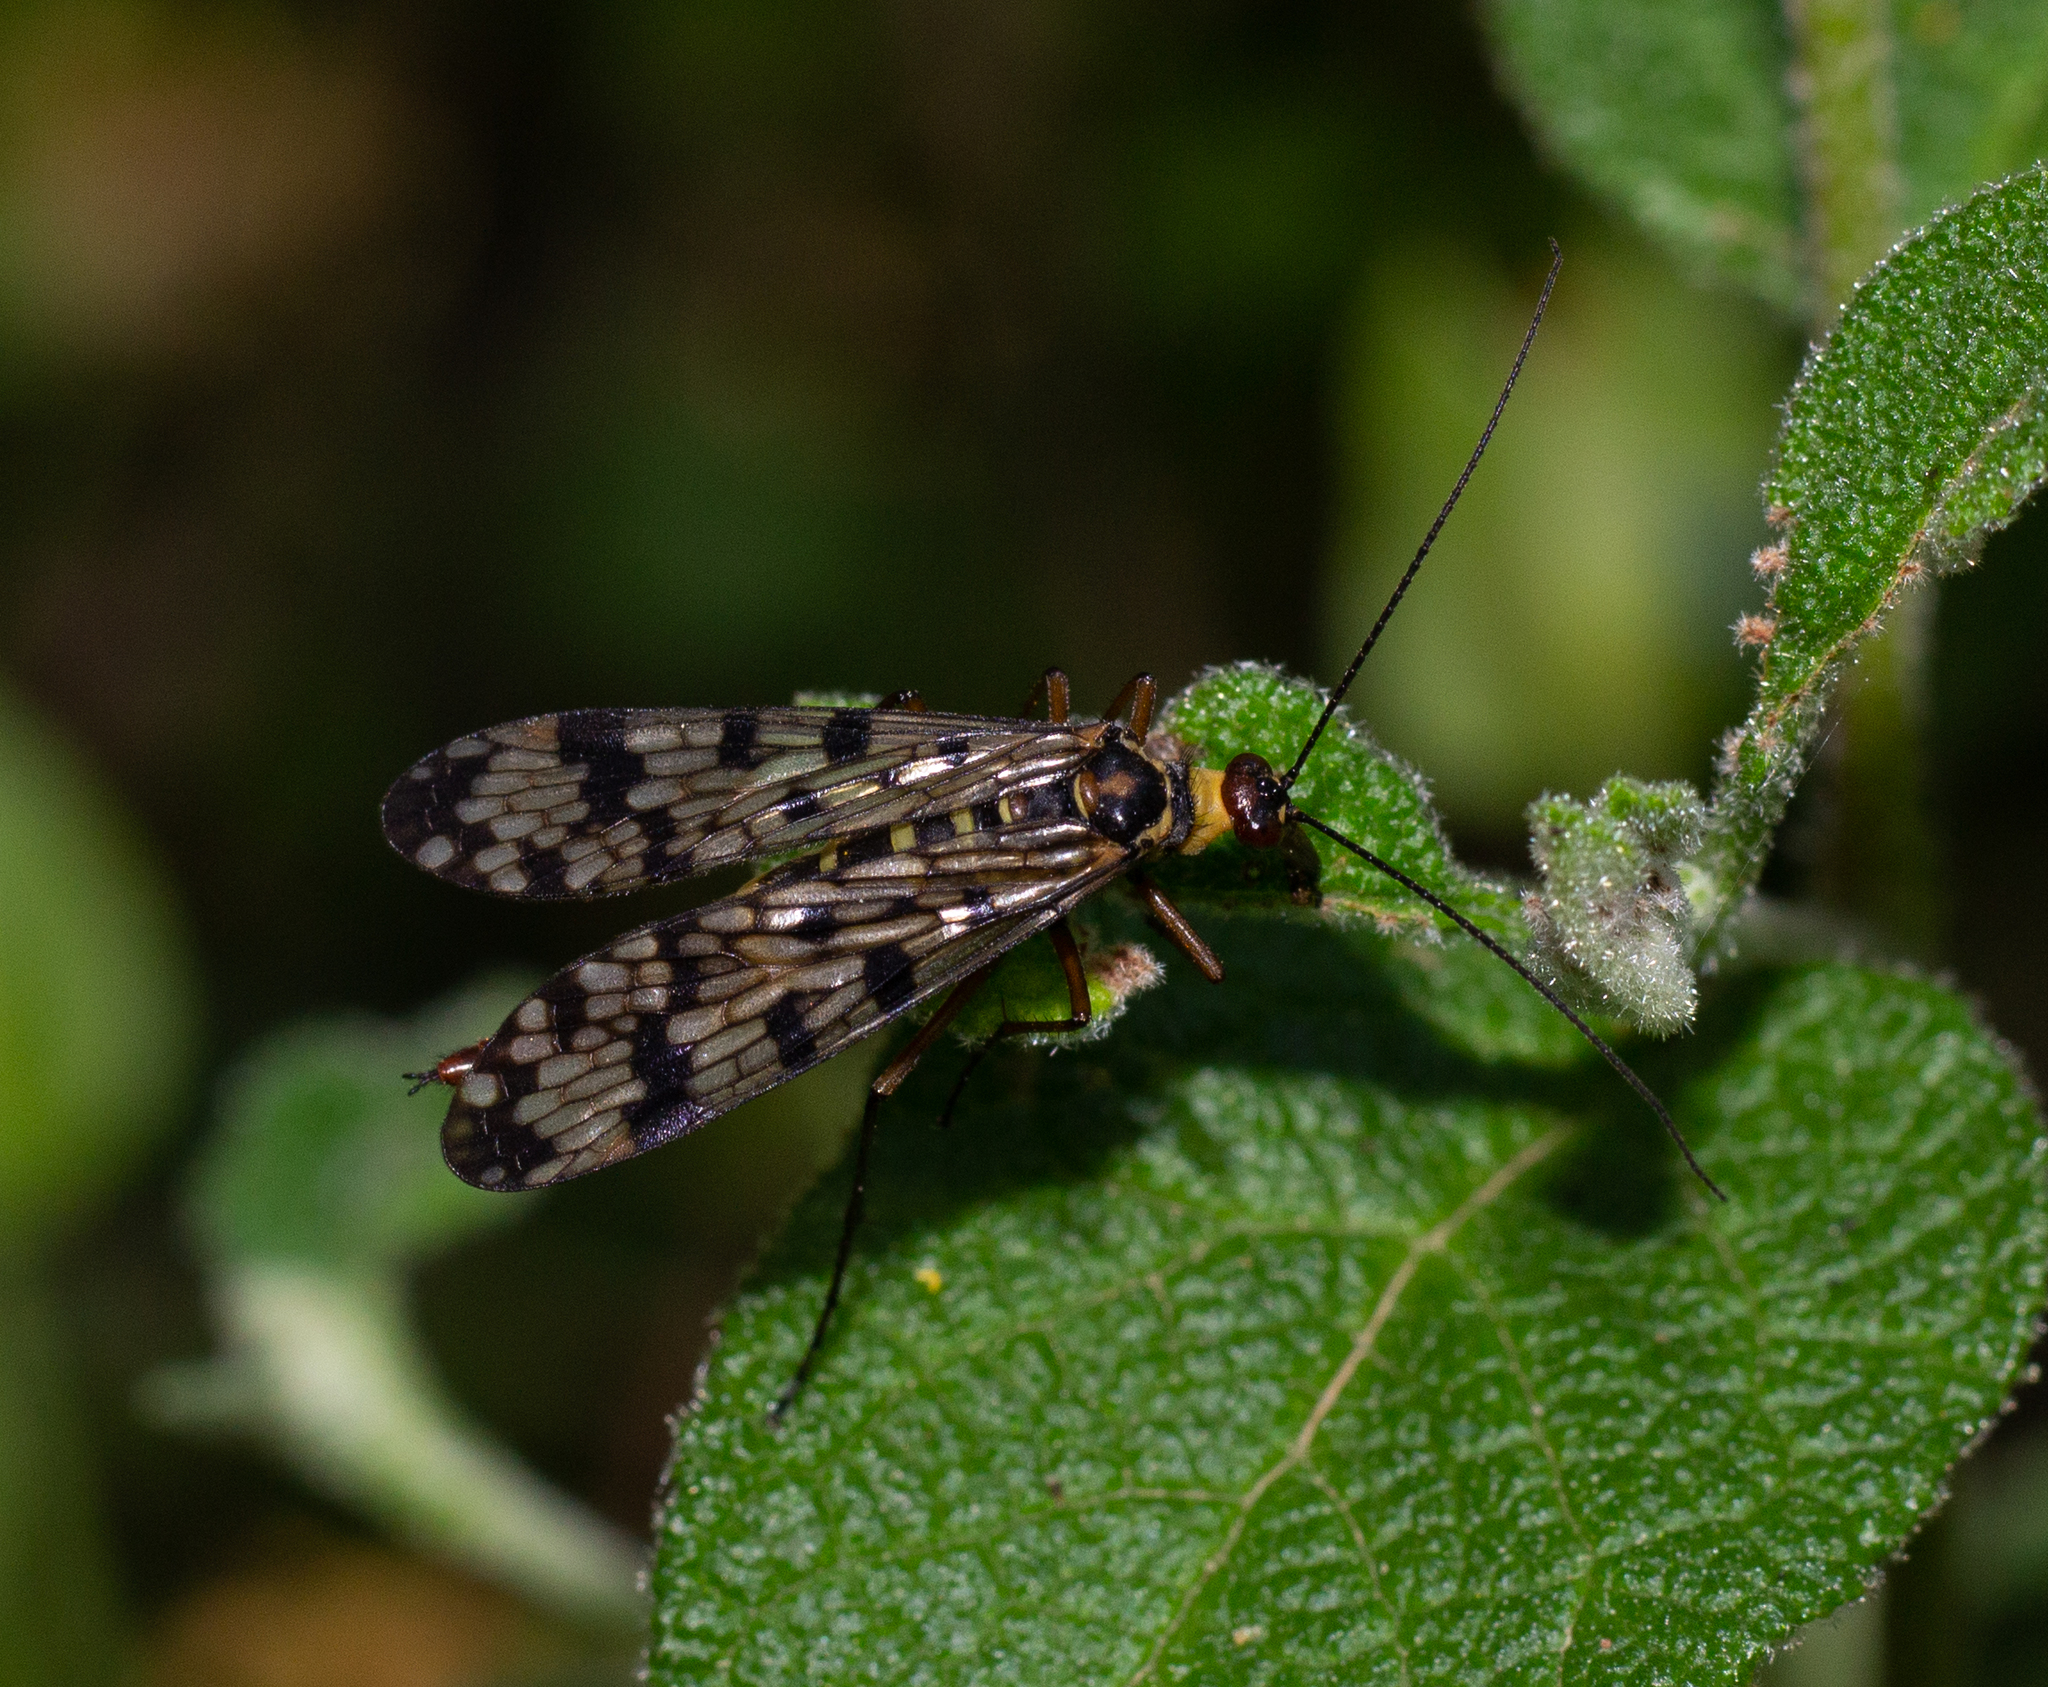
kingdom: Animalia
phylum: Arthropoda
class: Insecta
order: Mecoptera
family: Panorpidae
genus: Panorpa
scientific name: Panorpa meridionalis
